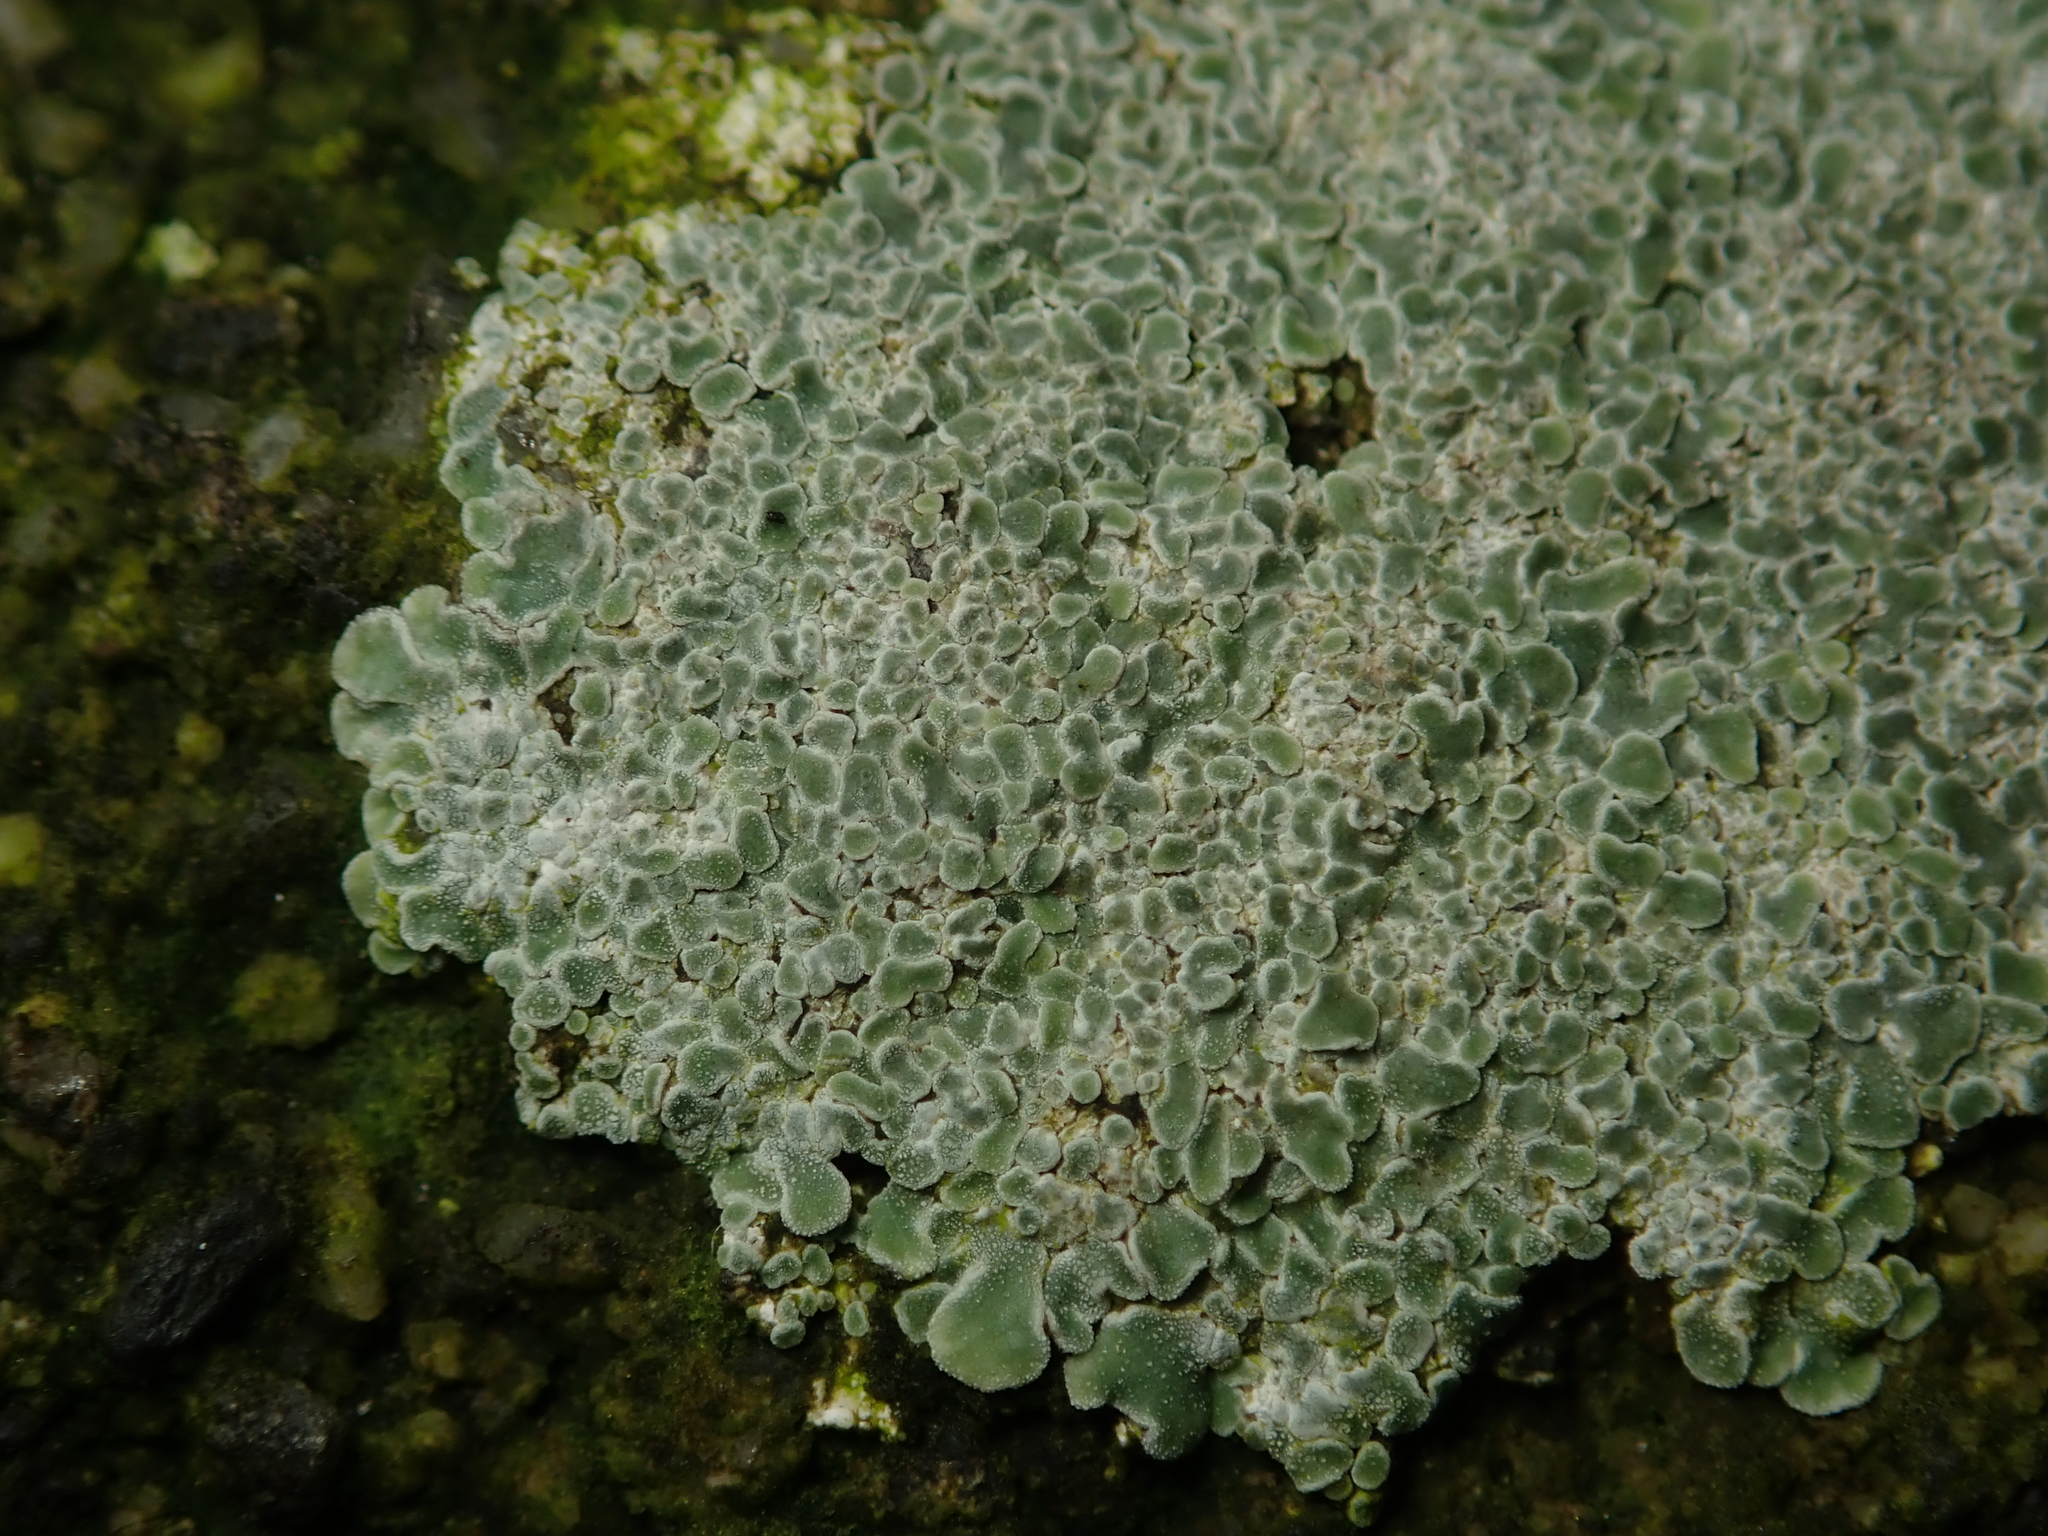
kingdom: Fungi
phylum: Ascomycota
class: Lecanoromycetes
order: Lecanorales
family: Lecanoraceae
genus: Protoparmeliopsis
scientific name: Protoparmeliopsis muralis
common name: Stonewall rim lichen
